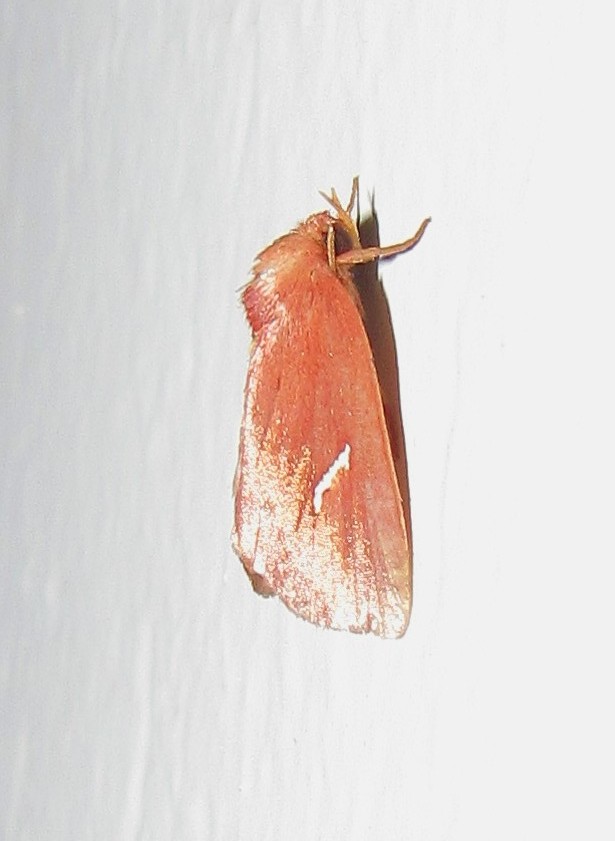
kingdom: Animalia
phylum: Arthropoda
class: Insecta
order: Lepidoptera
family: Noctuidae
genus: Macapta
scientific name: Macapta obliqua
